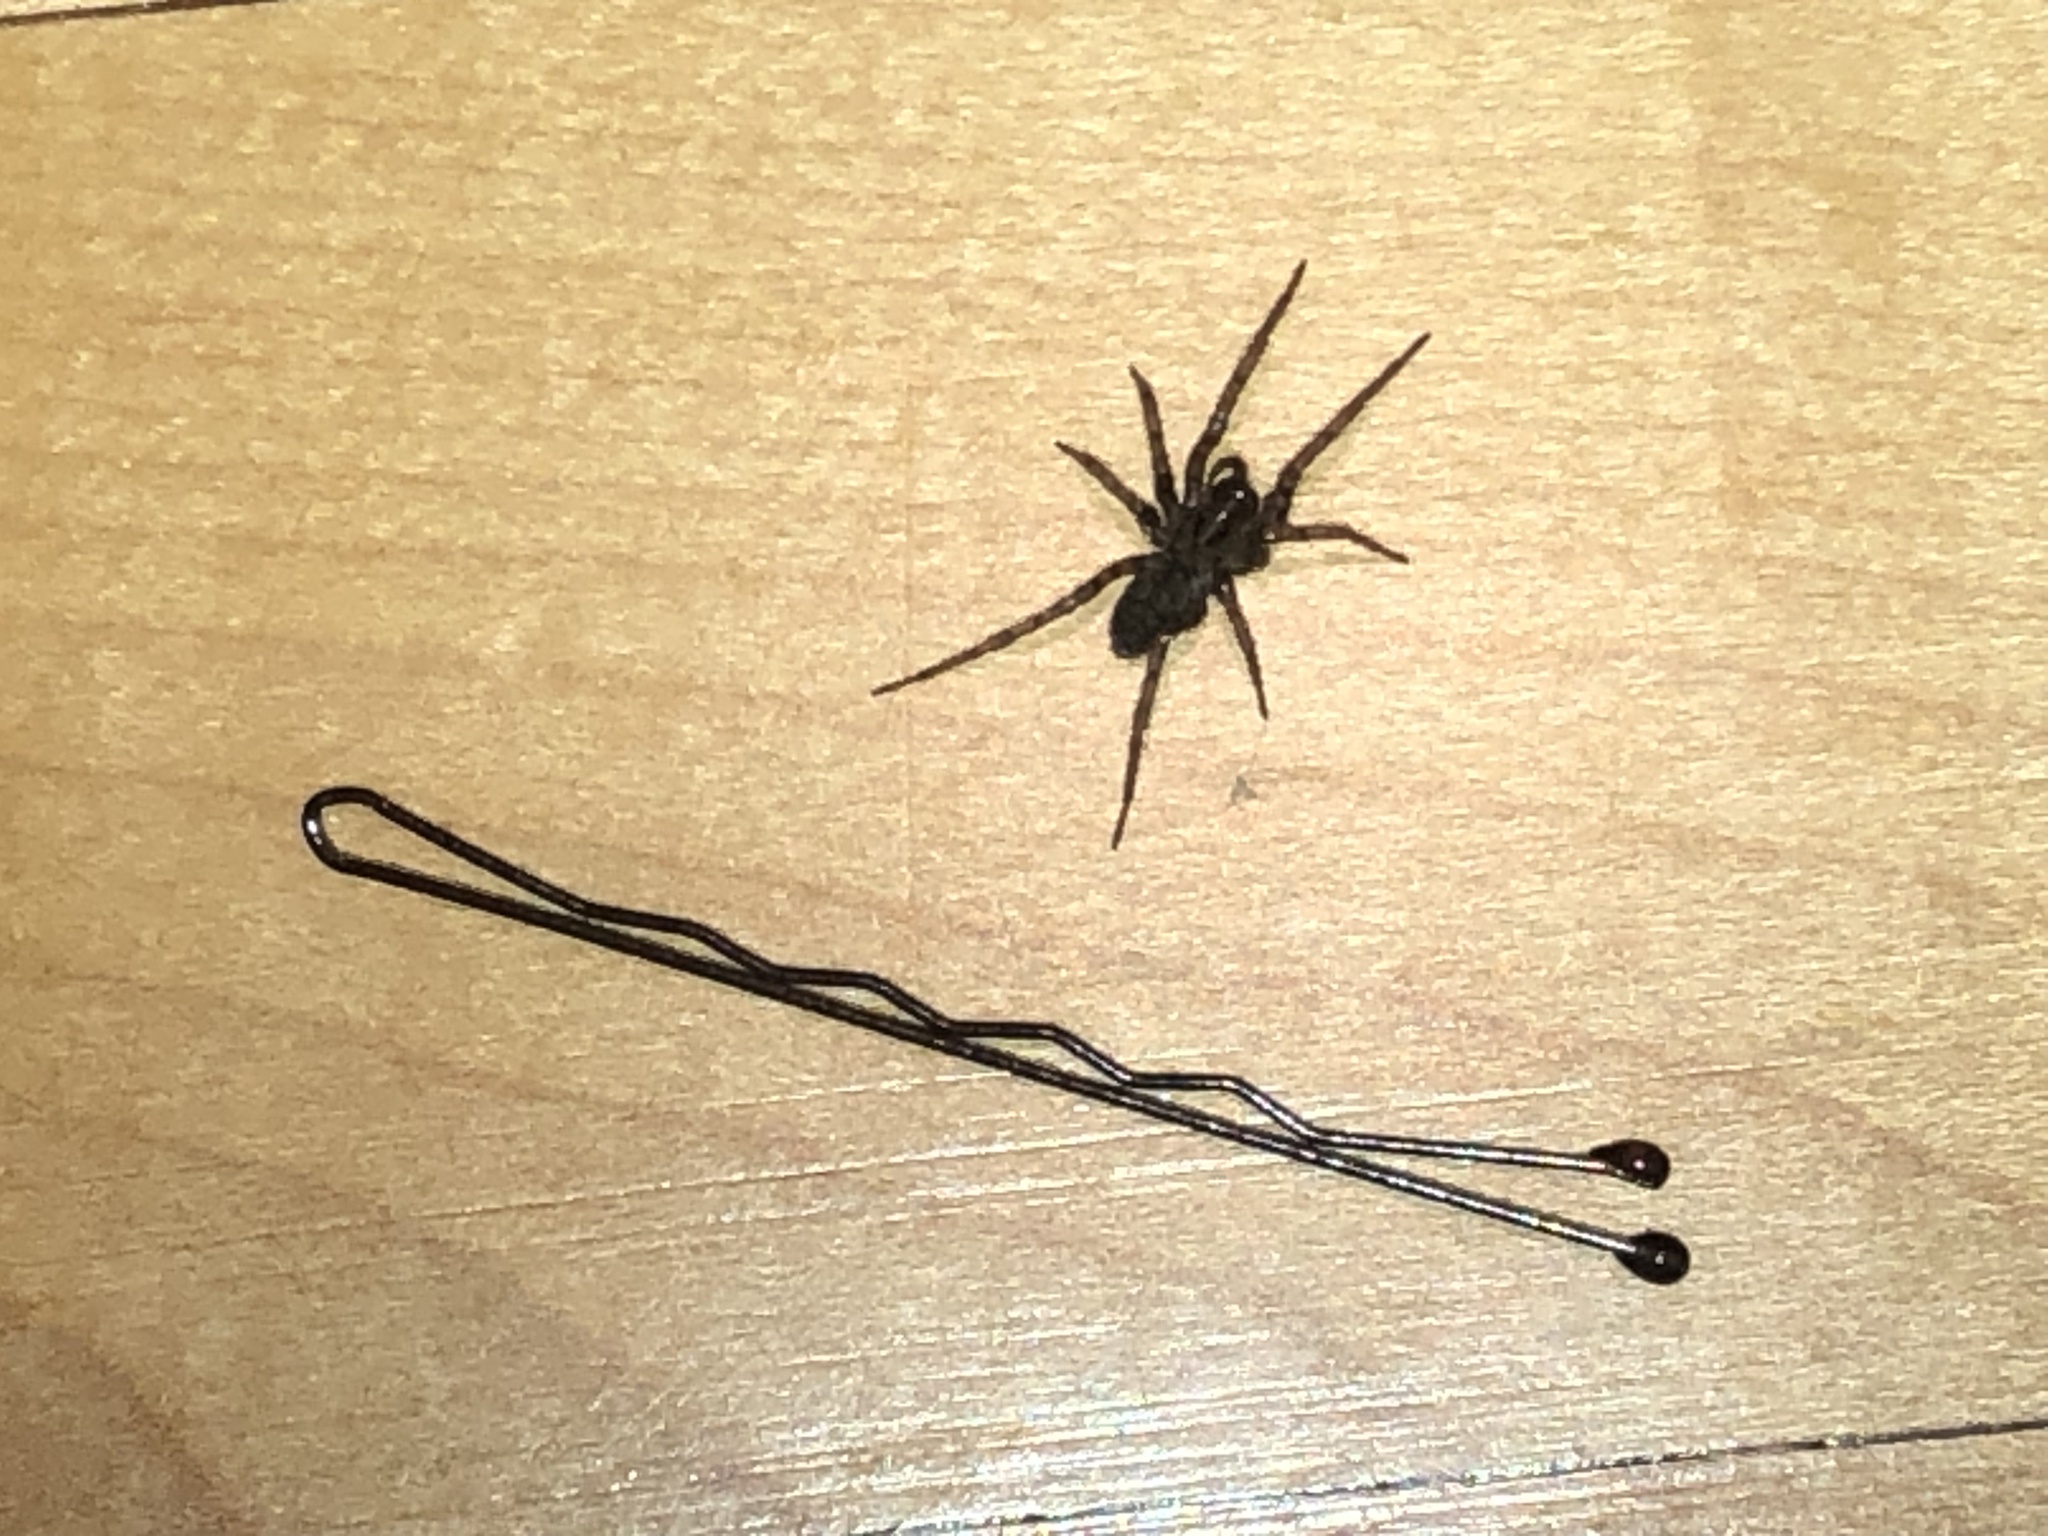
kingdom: Animalia
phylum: Arthropoda
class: Arachnida
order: Araneae
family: Agelenidae
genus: Coras
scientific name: Coras
